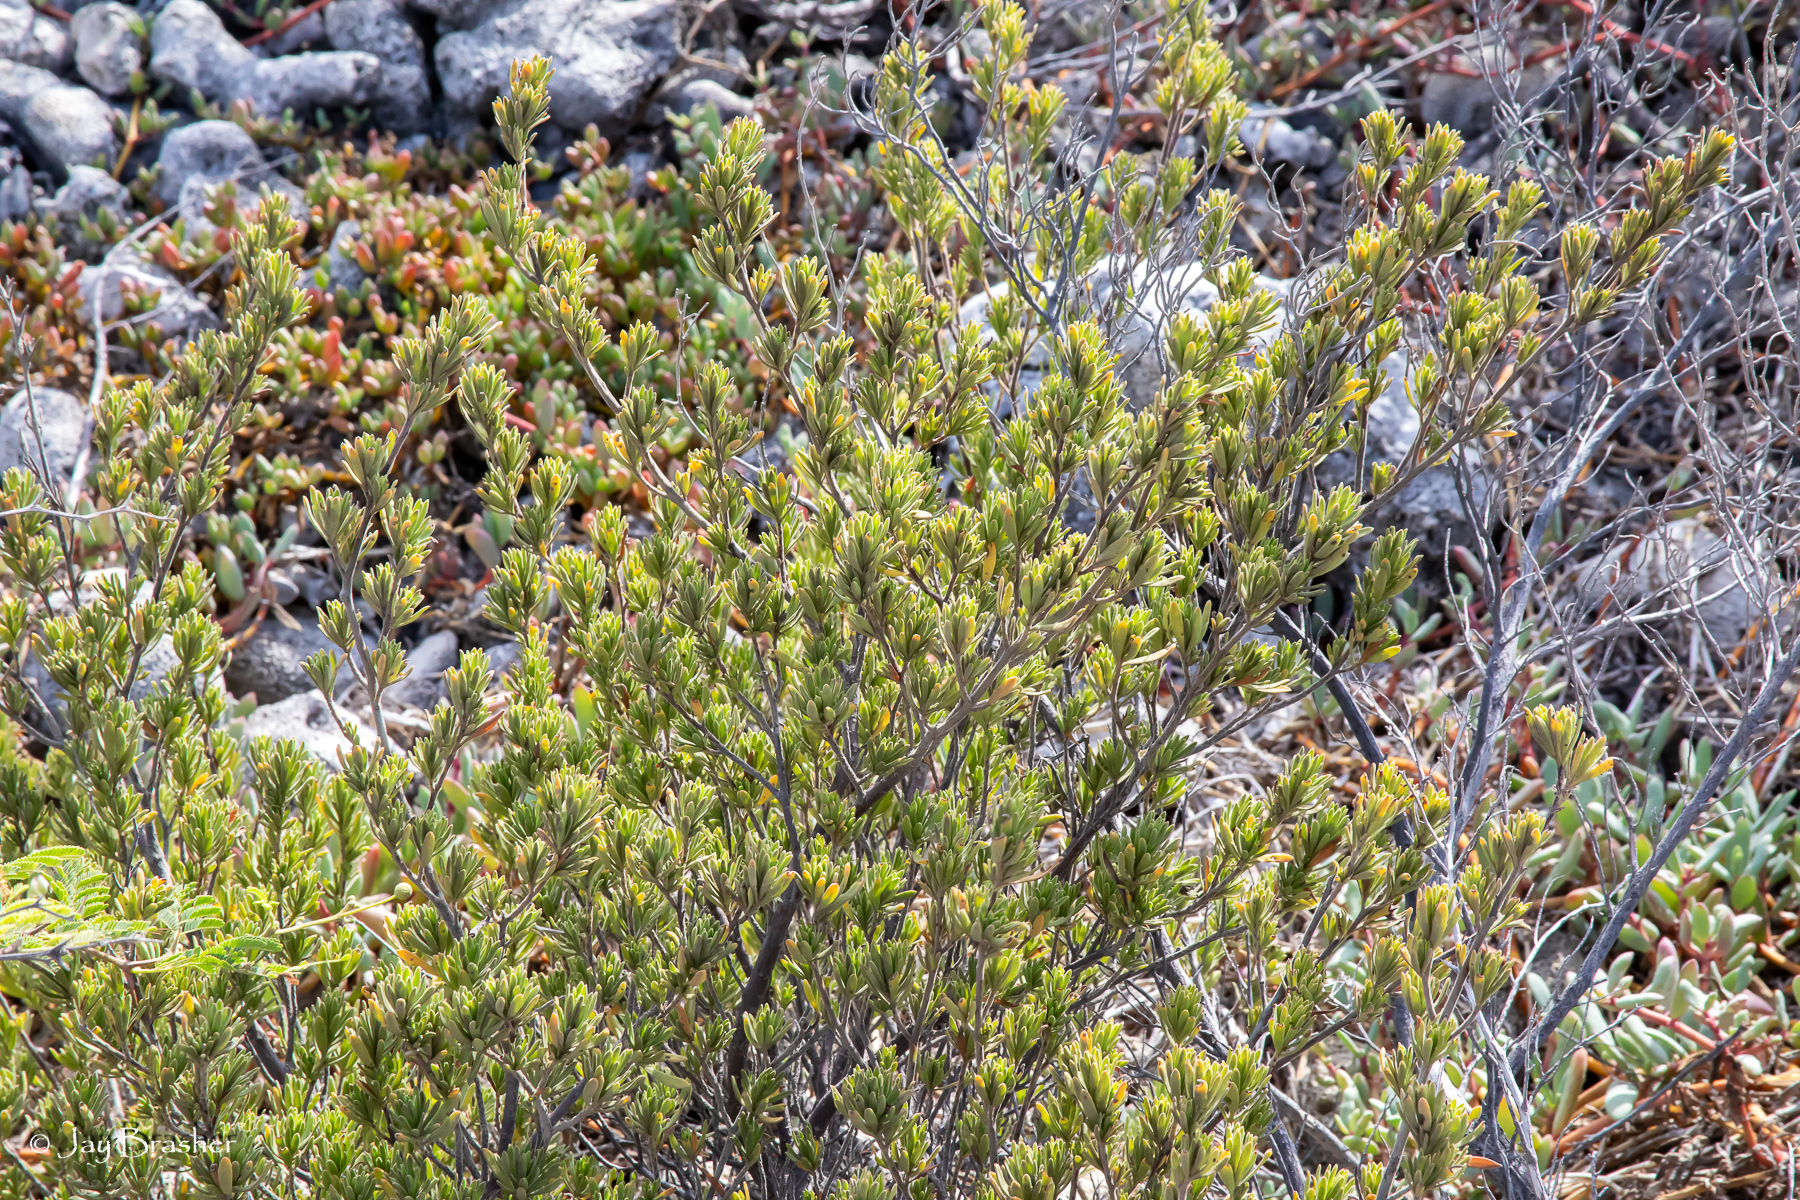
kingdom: Plantae
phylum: Tracheophyta
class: Magnoliopsida
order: Fabales
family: Surianaceae
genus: Suriana
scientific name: Suriana maritima
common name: Bay-cedar
